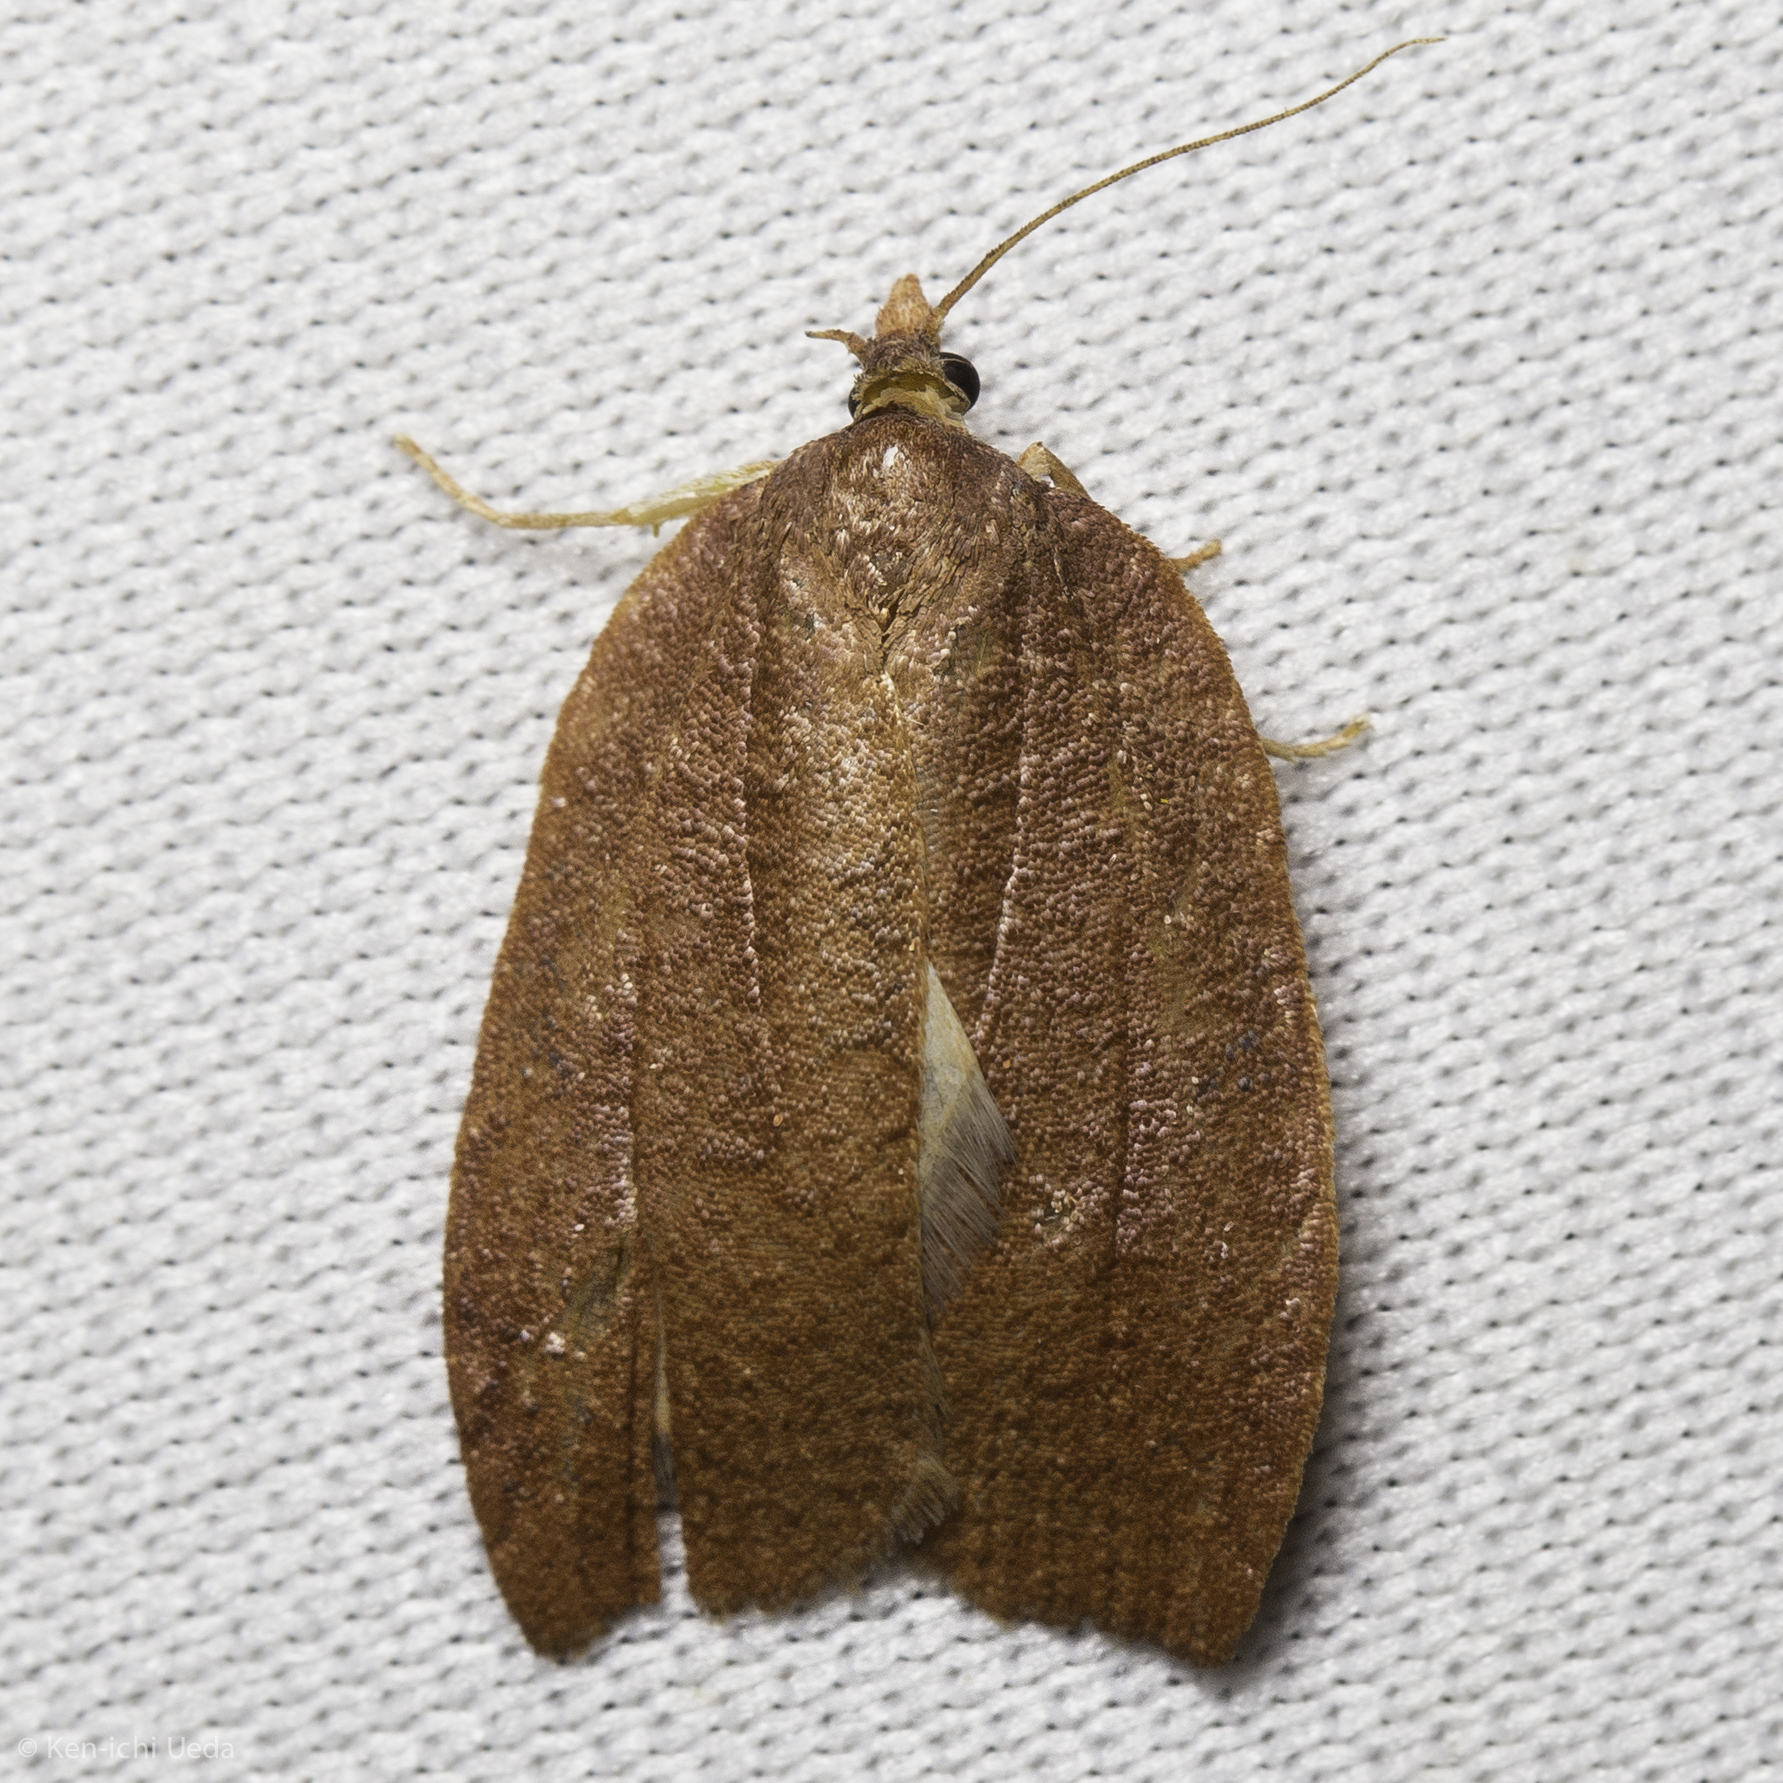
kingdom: Animalia
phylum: Arthropoda
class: Insecta
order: Lepidoptera
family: Tortricidae
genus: Amorbia
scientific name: Amorbia cuneanum
